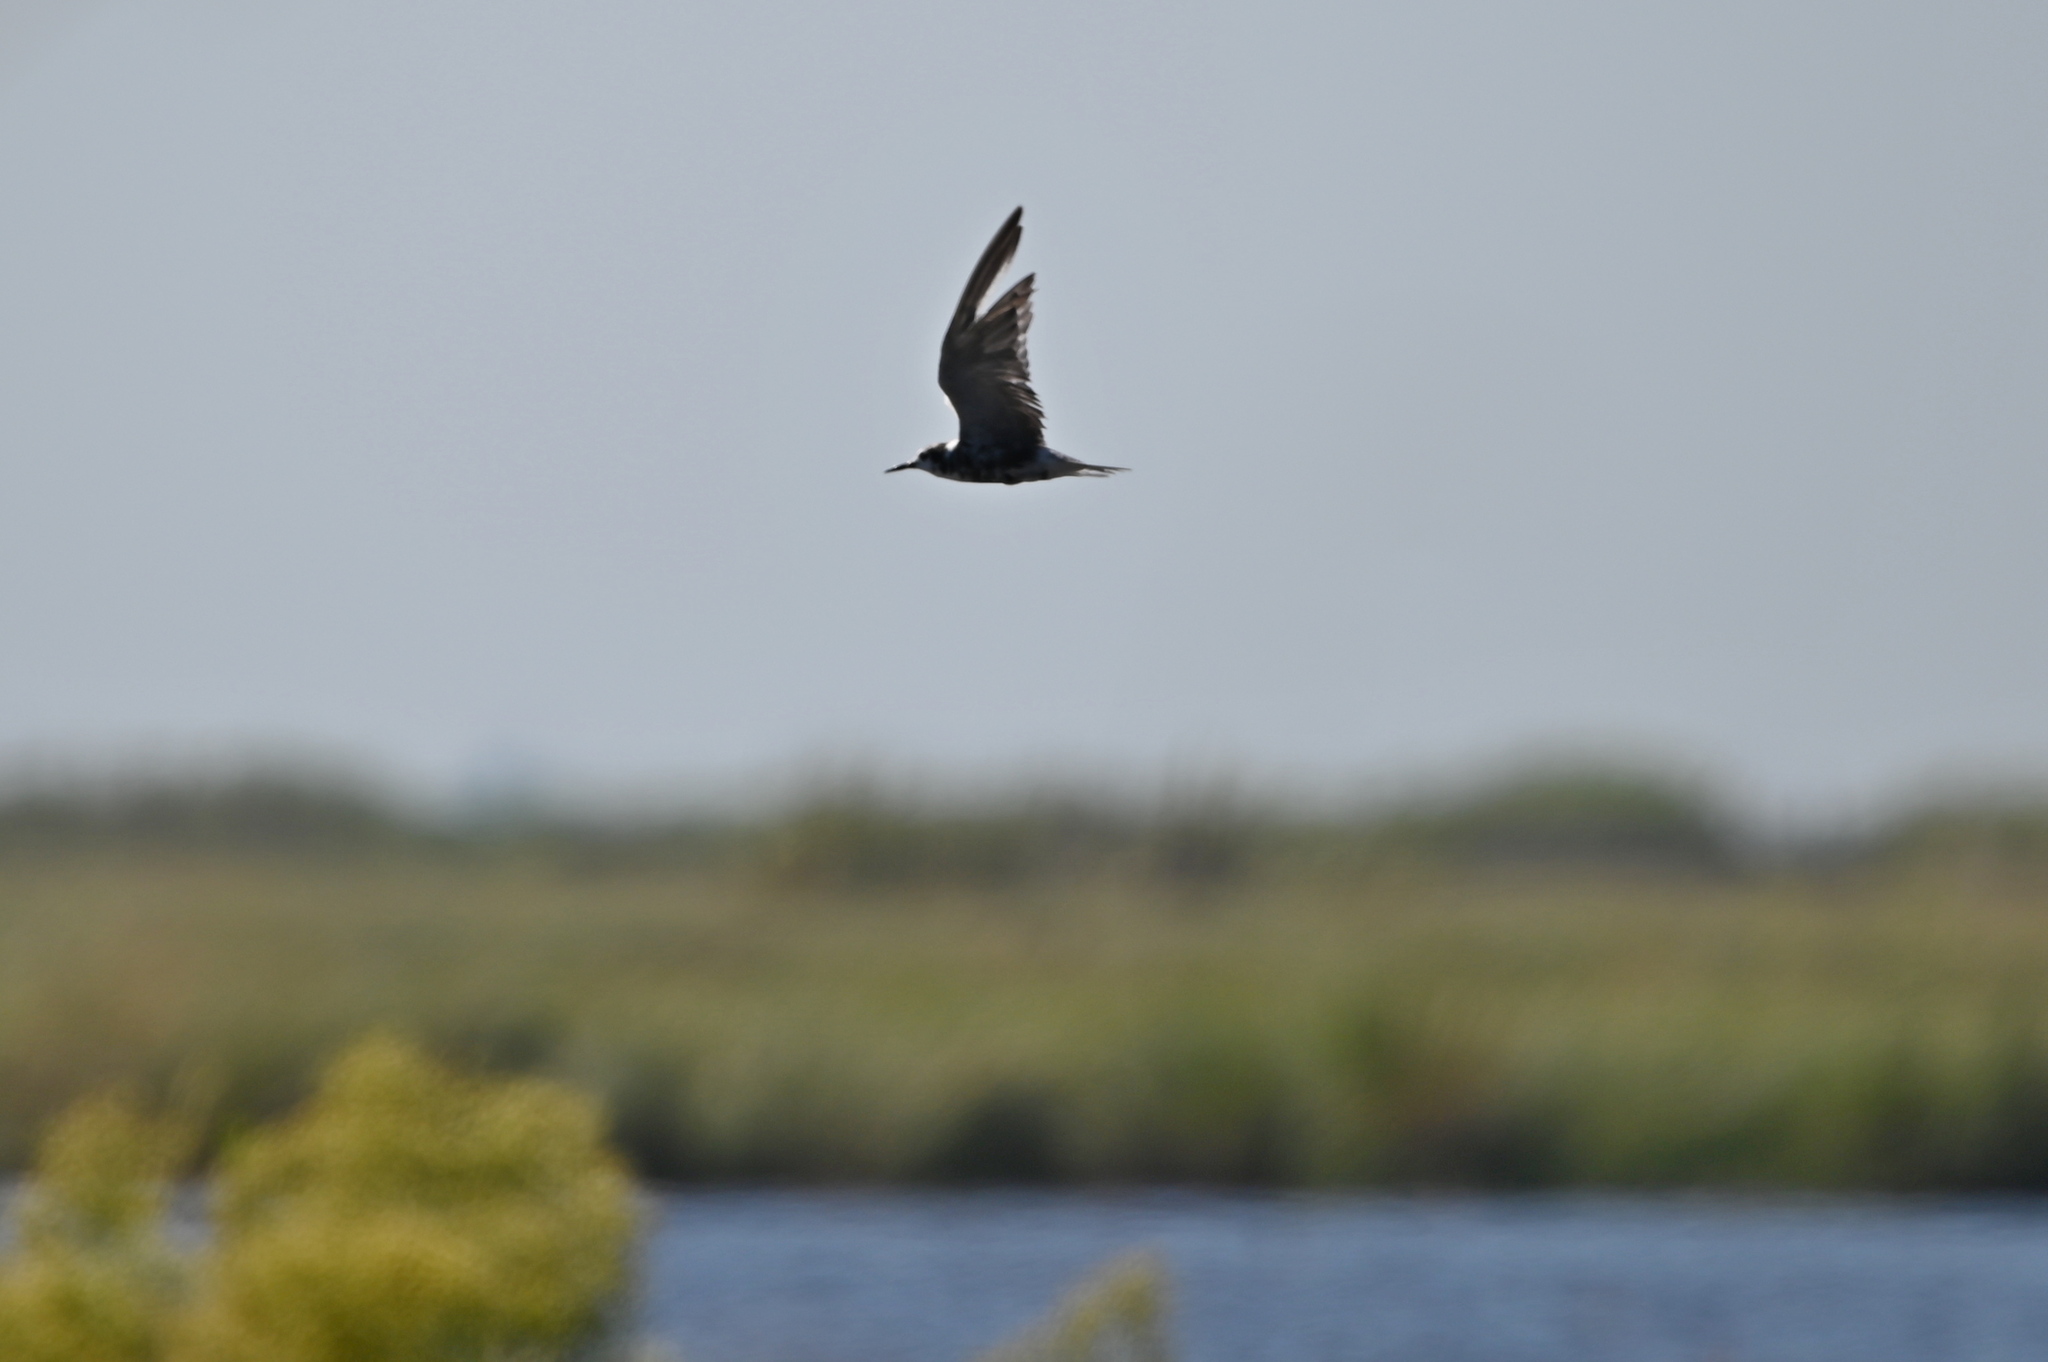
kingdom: Animalia
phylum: Chordata
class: Aves
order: Charadriiformes
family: Laridae
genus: Chlidonias
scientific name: Chlidonias niger
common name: Black tern
